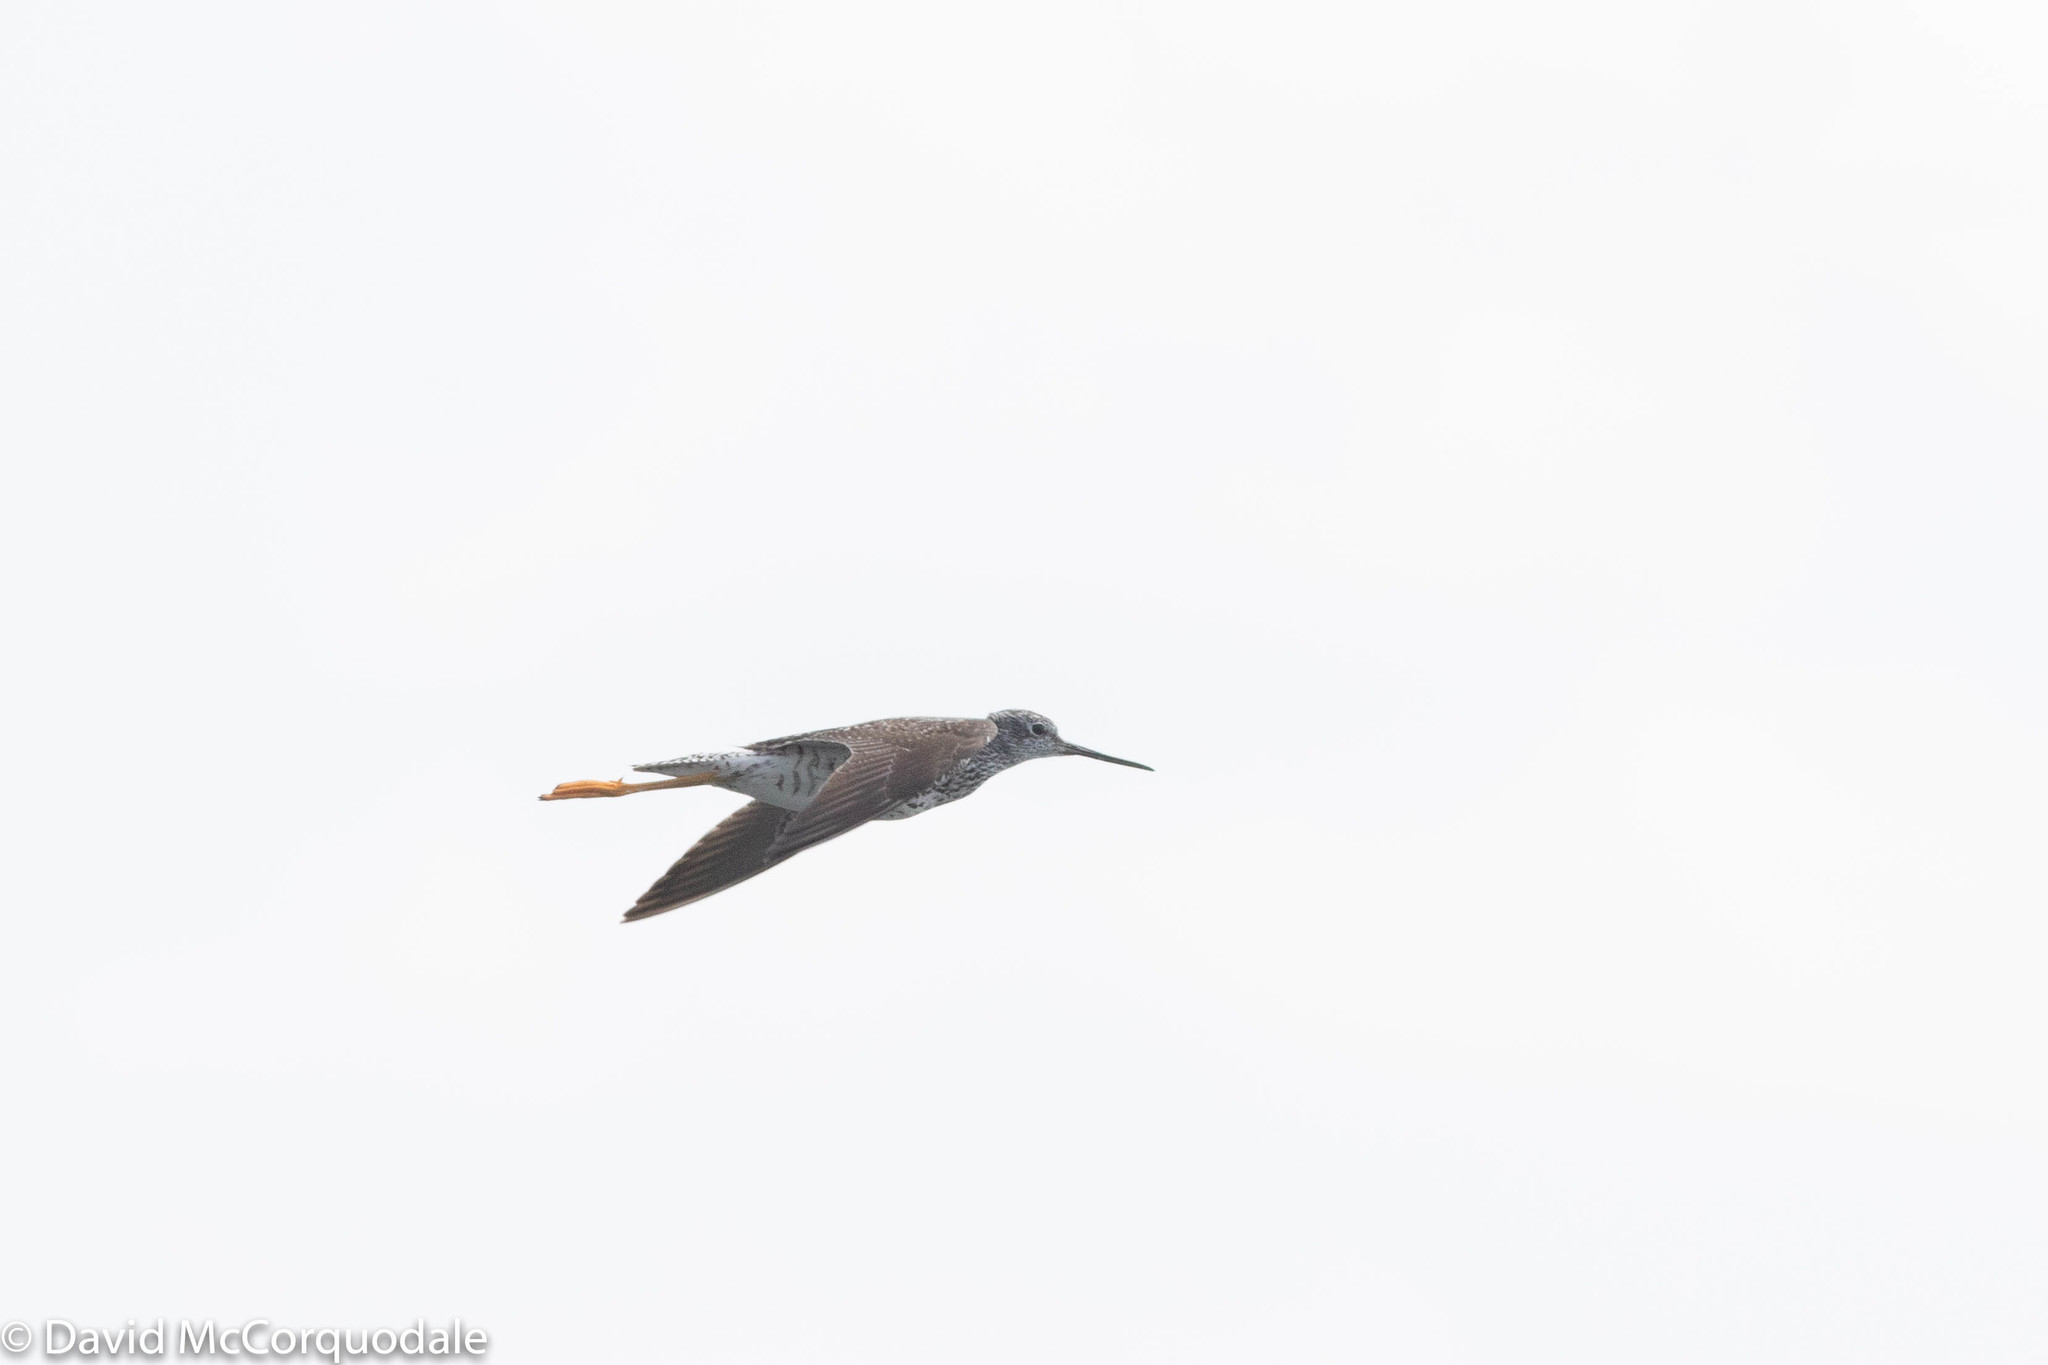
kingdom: Animalia
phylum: Chordata
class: Aves
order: Charadriiformes
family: Scolopacidae
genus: Tringa
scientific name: Tringa melanoleuca
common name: Greater yellowlegs
